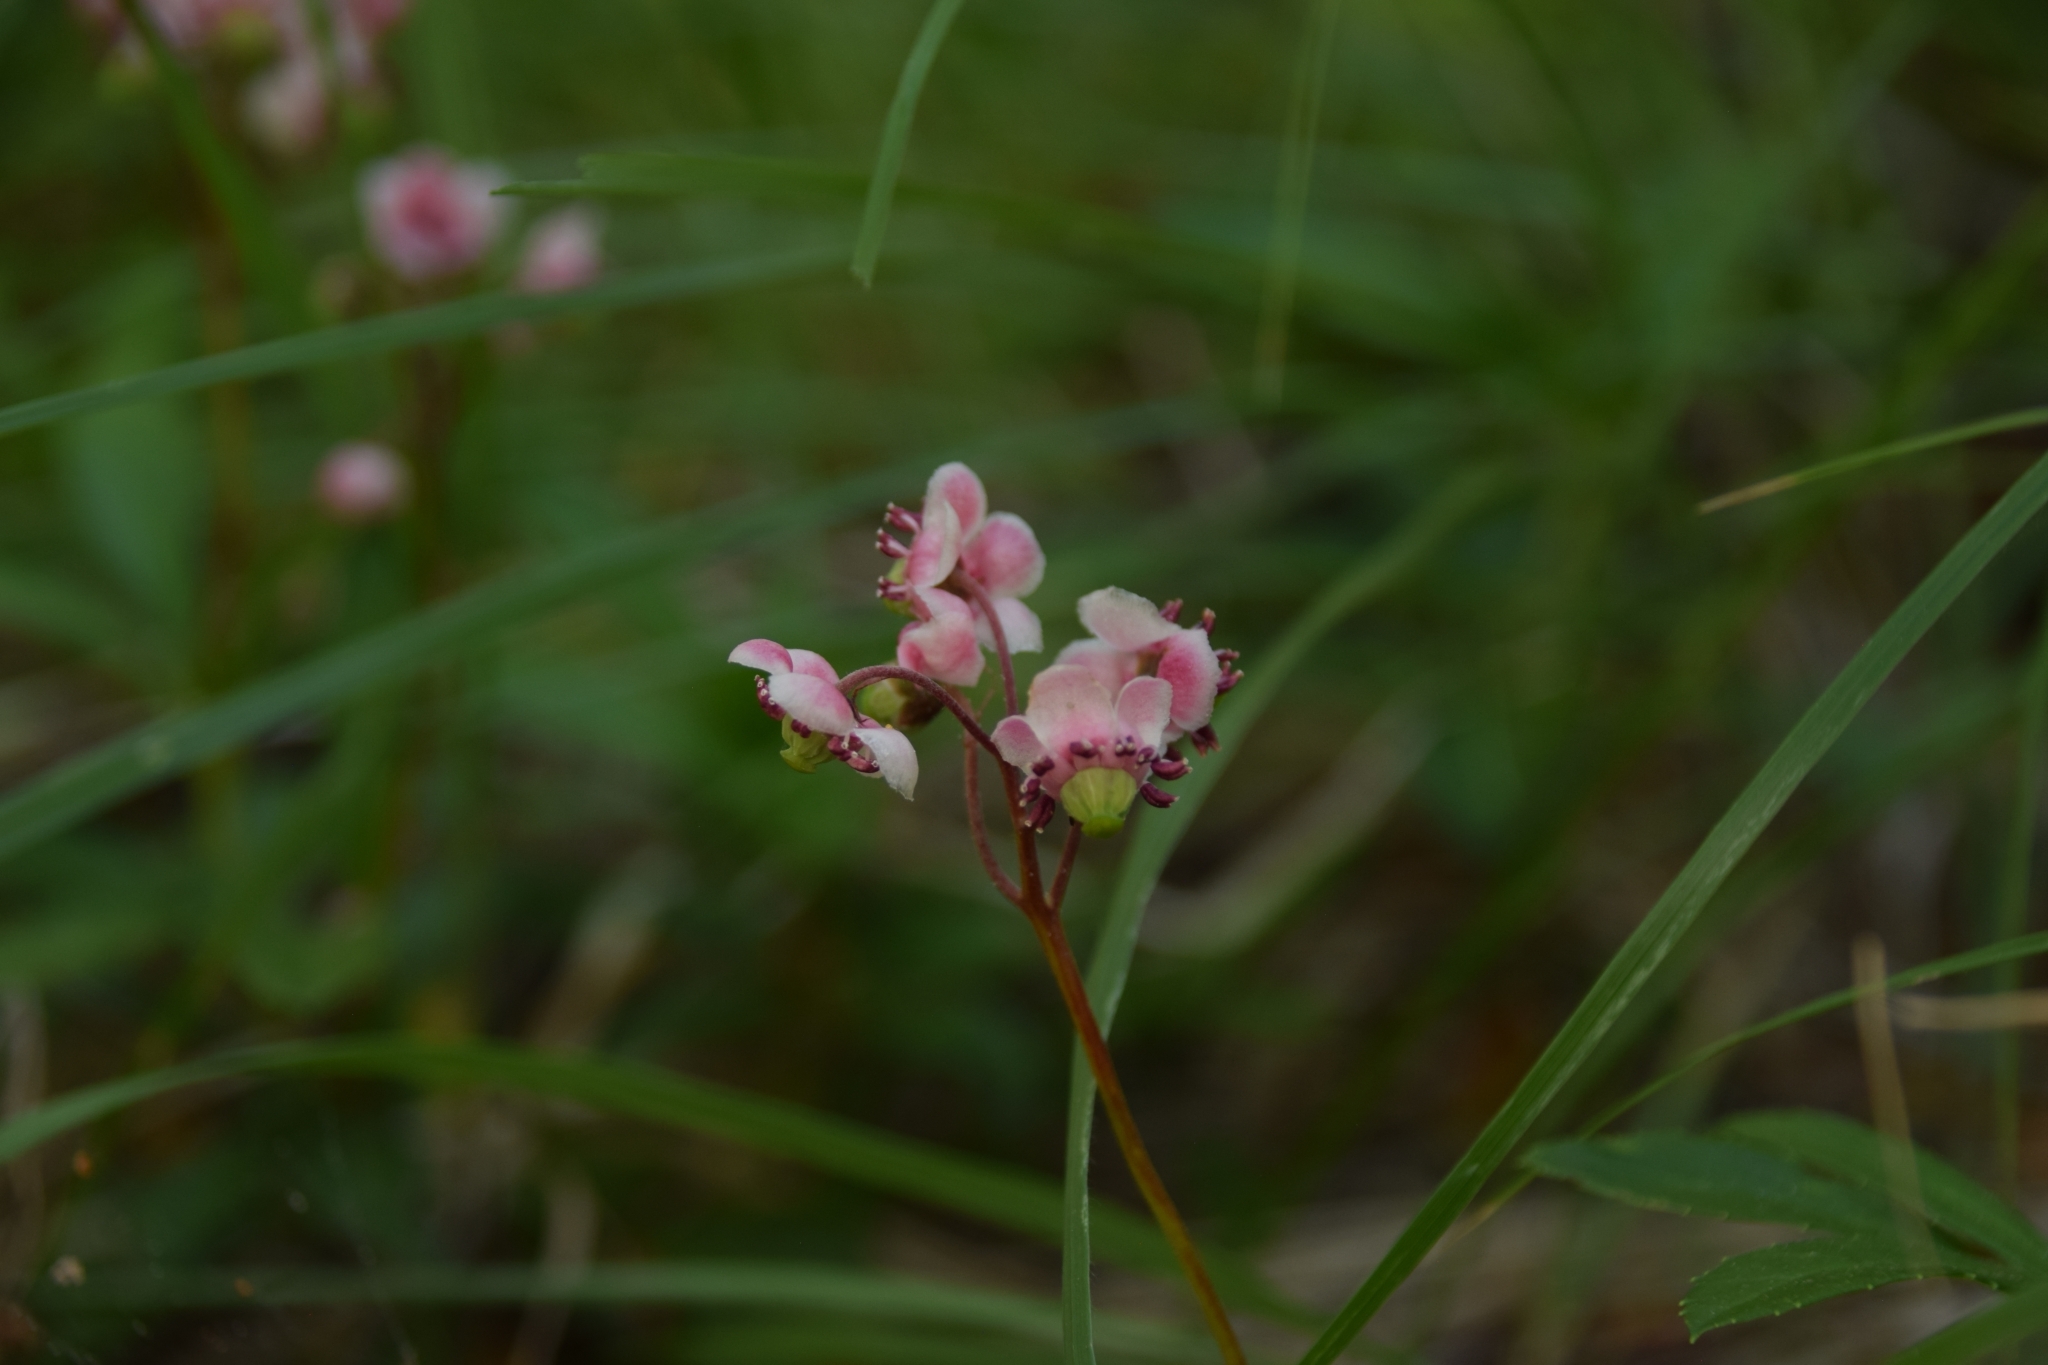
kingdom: Plantae
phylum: Tracheophyta
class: Magnoliopsida
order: Ericales
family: Ericaceae
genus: Chimaphila
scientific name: Chimaphila umbellata
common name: Pipsissewa
